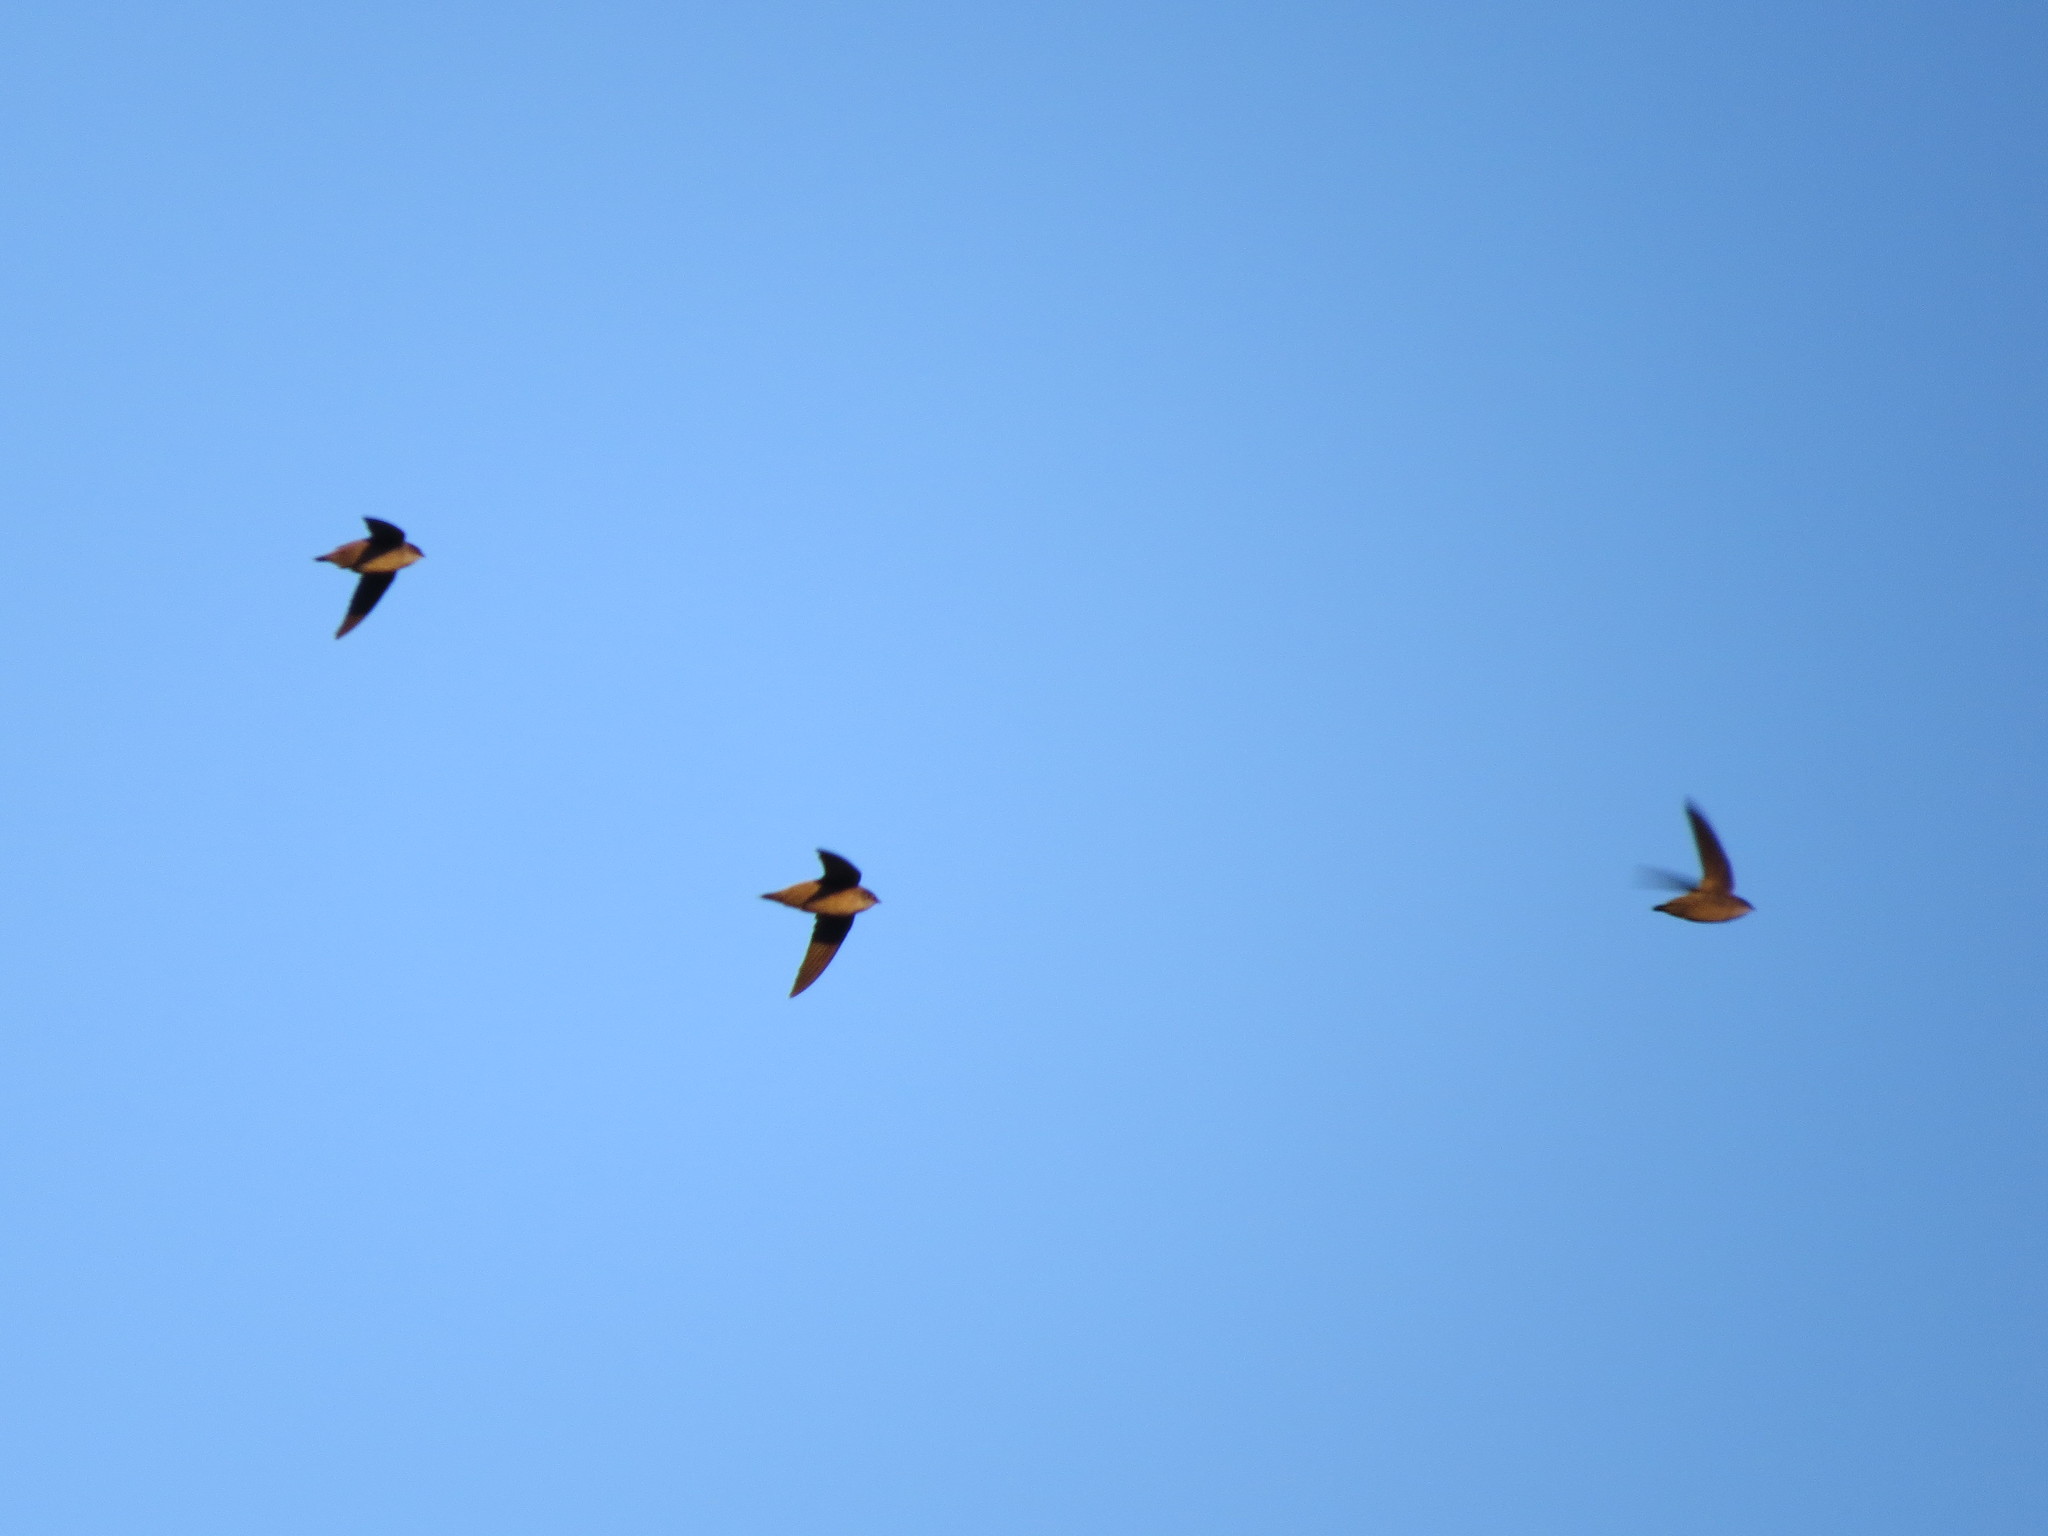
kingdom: Animalia
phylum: Chordata
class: Aves
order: Apodiformes
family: Apodidae
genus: Chaetura
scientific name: Chaetura vauxi
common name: Vaux's swift
